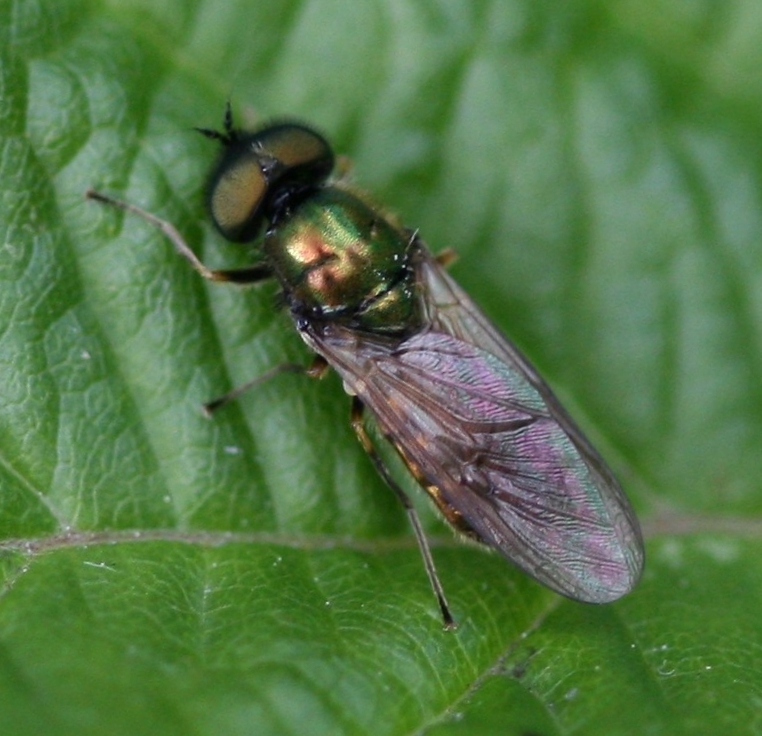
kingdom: Animalia
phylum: Arthropoda
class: Insecta
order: Diptera
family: Stratiomyidae
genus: Chloromyia
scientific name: Chloromyia formosa
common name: Soldier fly
